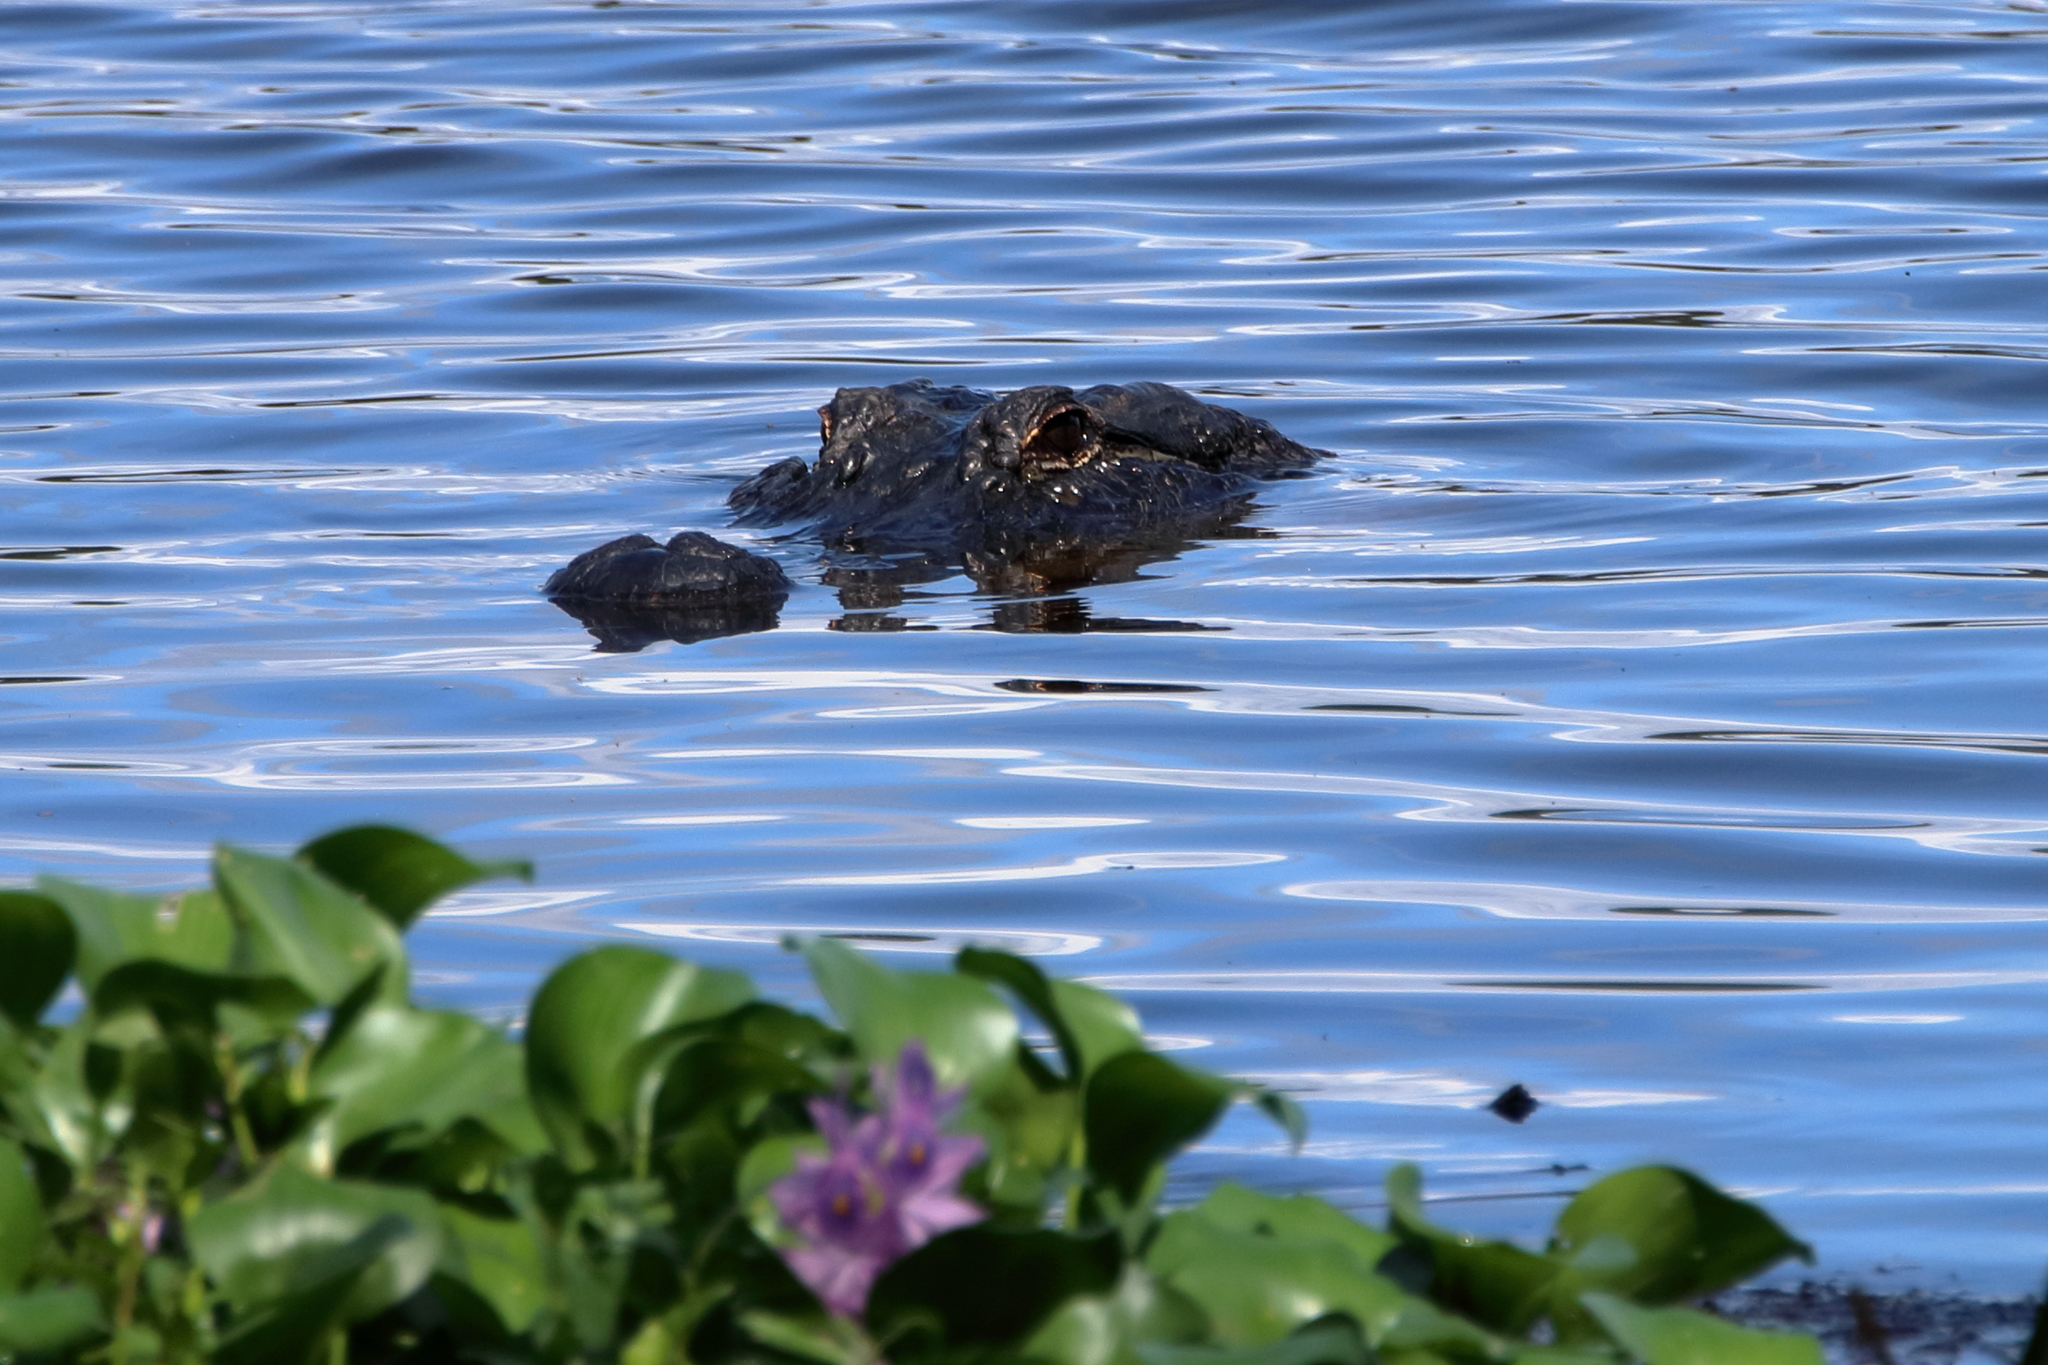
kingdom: Animalia
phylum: Chordata
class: Crocodylia
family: Alligatoridae
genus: Alligator
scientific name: Alligator mississippiensis
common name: American alligator
